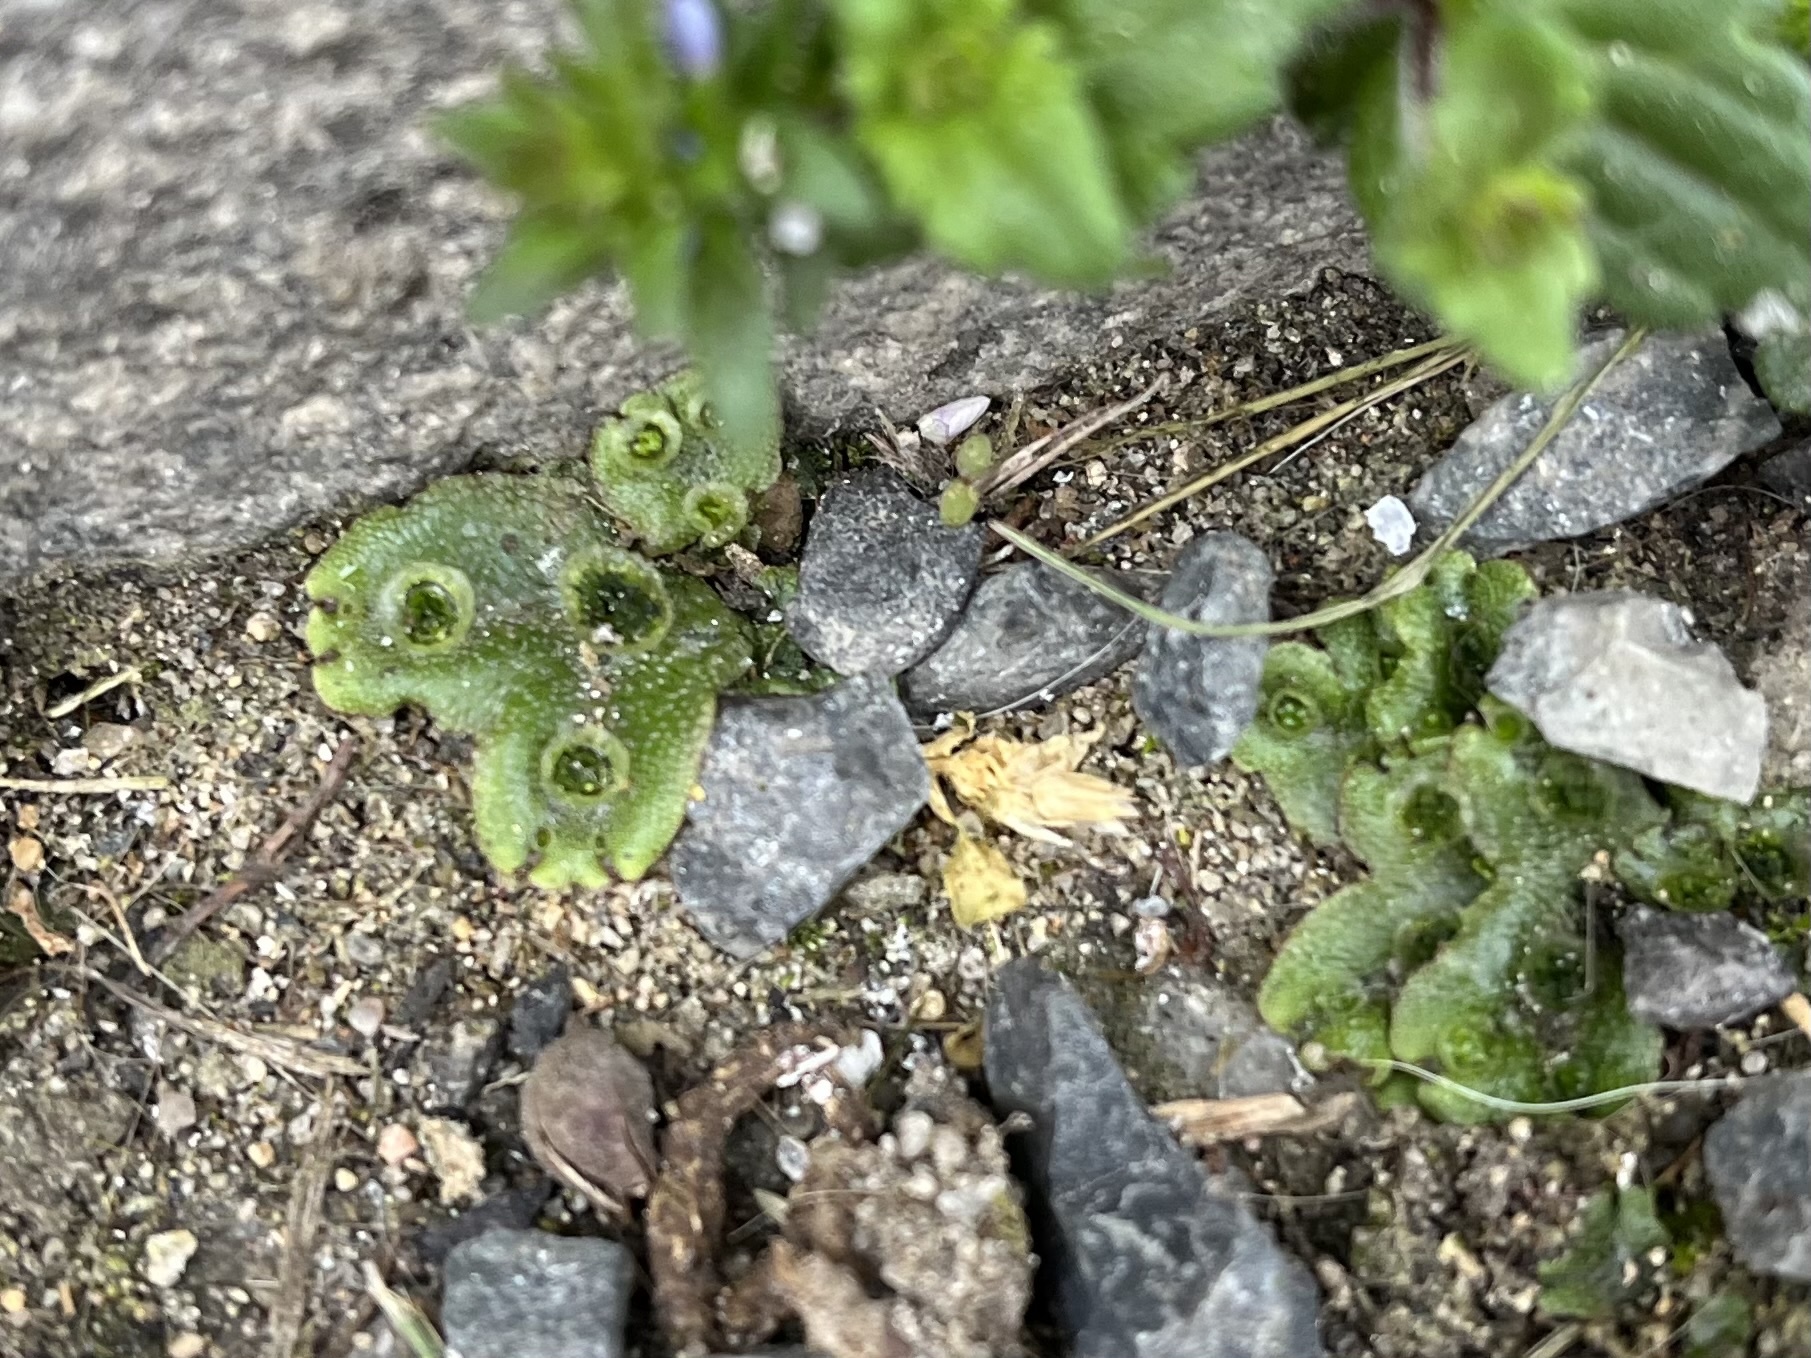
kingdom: Plantae
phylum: Marchantiophyta
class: Marchantiopsida
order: Marchantiales
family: Marchantiaceae
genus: Marchantia
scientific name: Marchantia polymorpha
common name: Common liverwort
